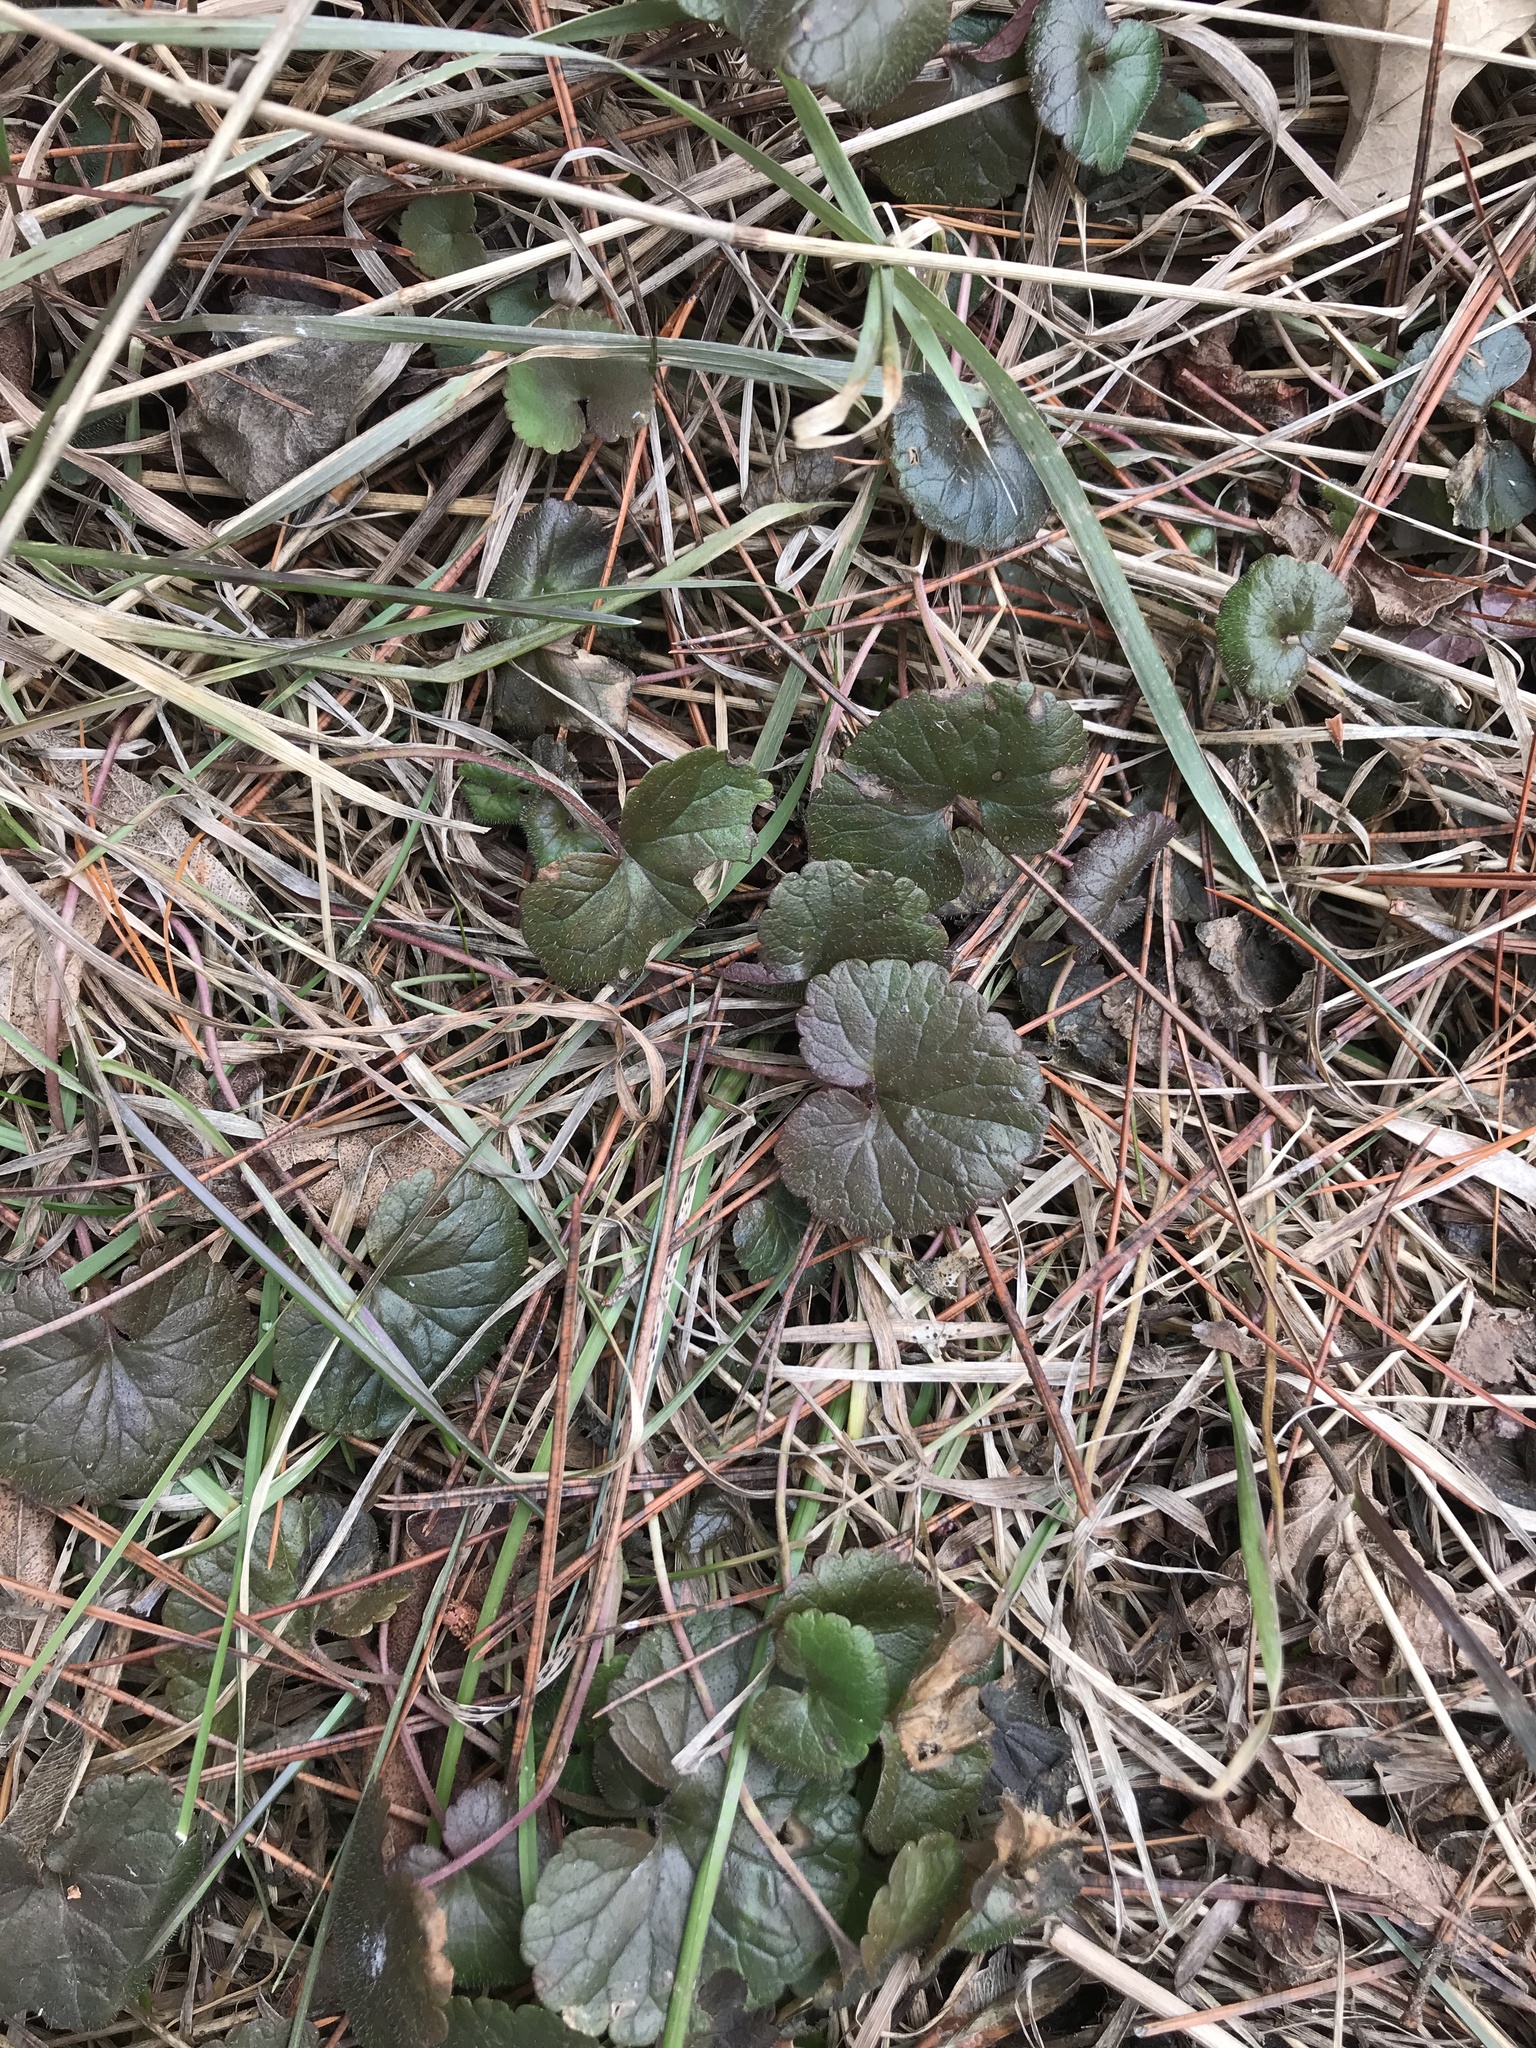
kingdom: Plantae
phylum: Tracheophyta
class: Magnoliopsida
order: Lamiales
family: Lamiaceae
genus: Glechoma
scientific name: Glechoma hederacea
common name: Ground ivy
